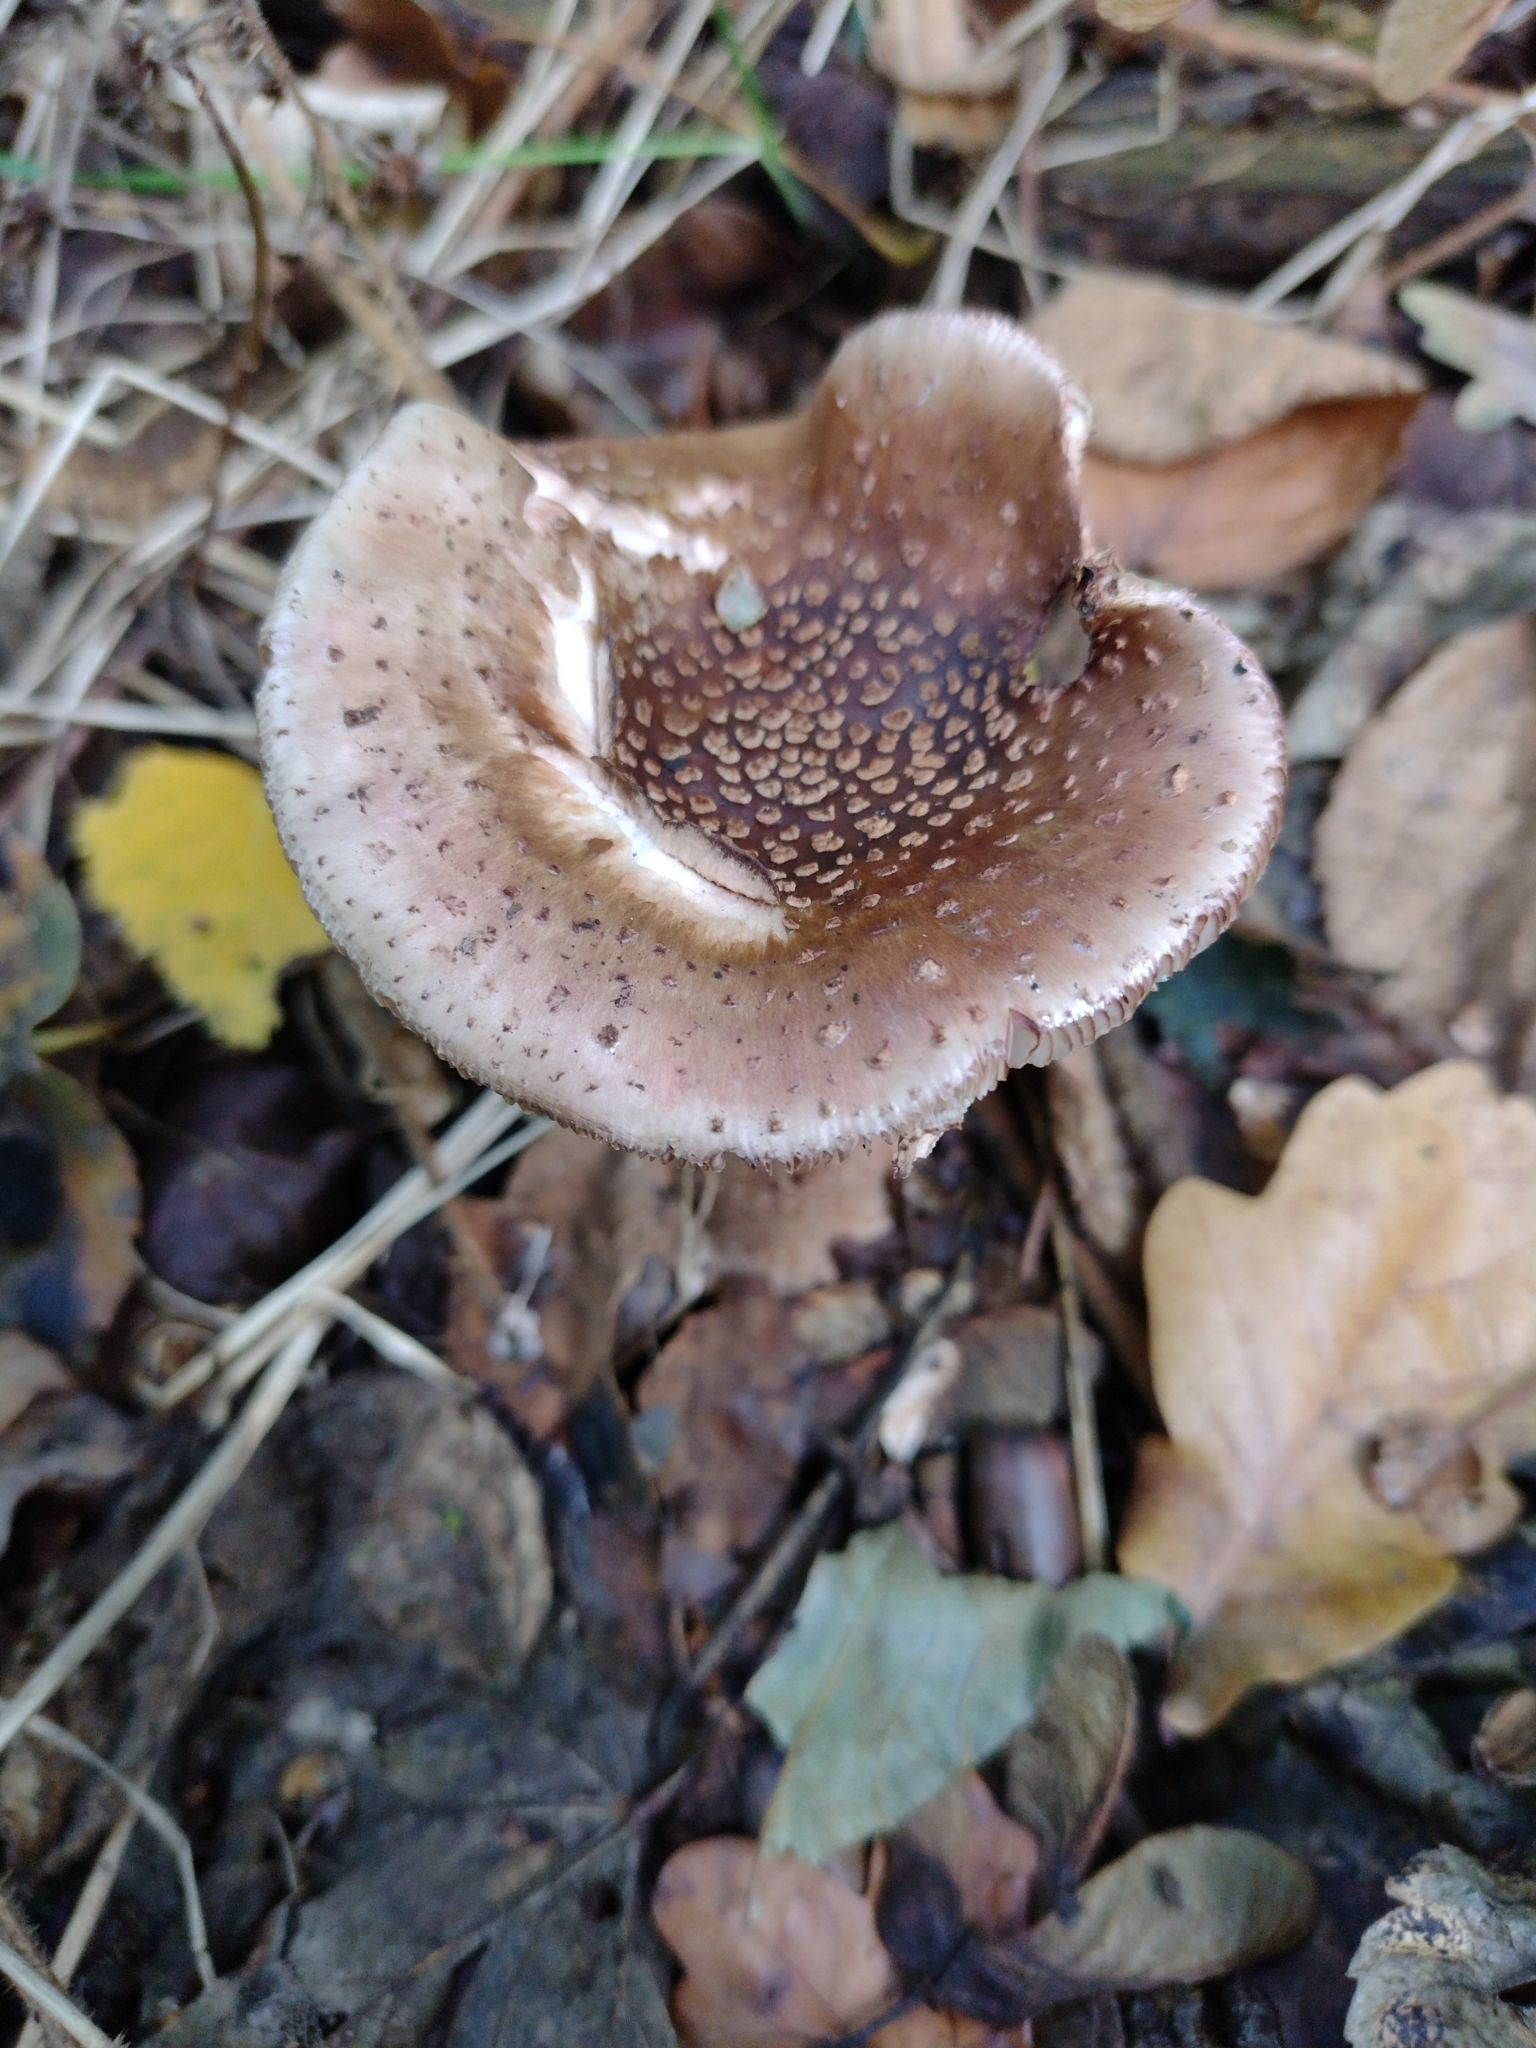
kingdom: Fungi
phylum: Basidiomycota
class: Agaricomycetes
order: Agaricales
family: Amanitaceae
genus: Amanita
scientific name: Amanita rubescens
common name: Blusher
